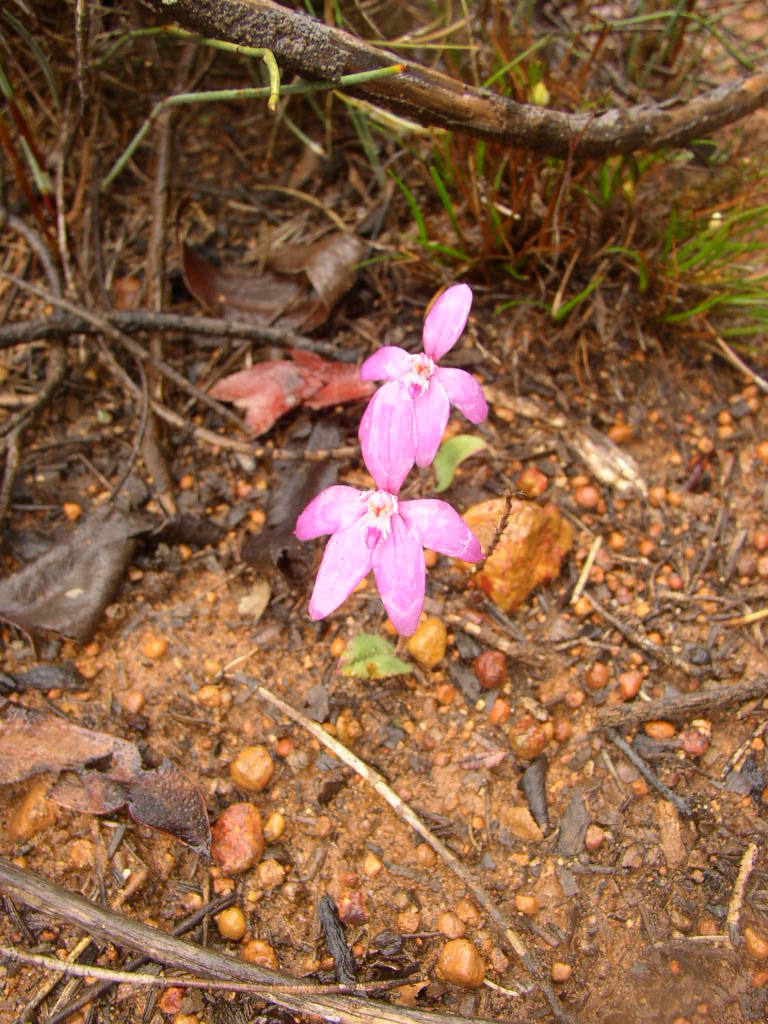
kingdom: Plantae
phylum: Tracheophyta
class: Liliopsida
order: Asparagales
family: Orchidaceae
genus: Caladenia
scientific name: Caladenia reptans
